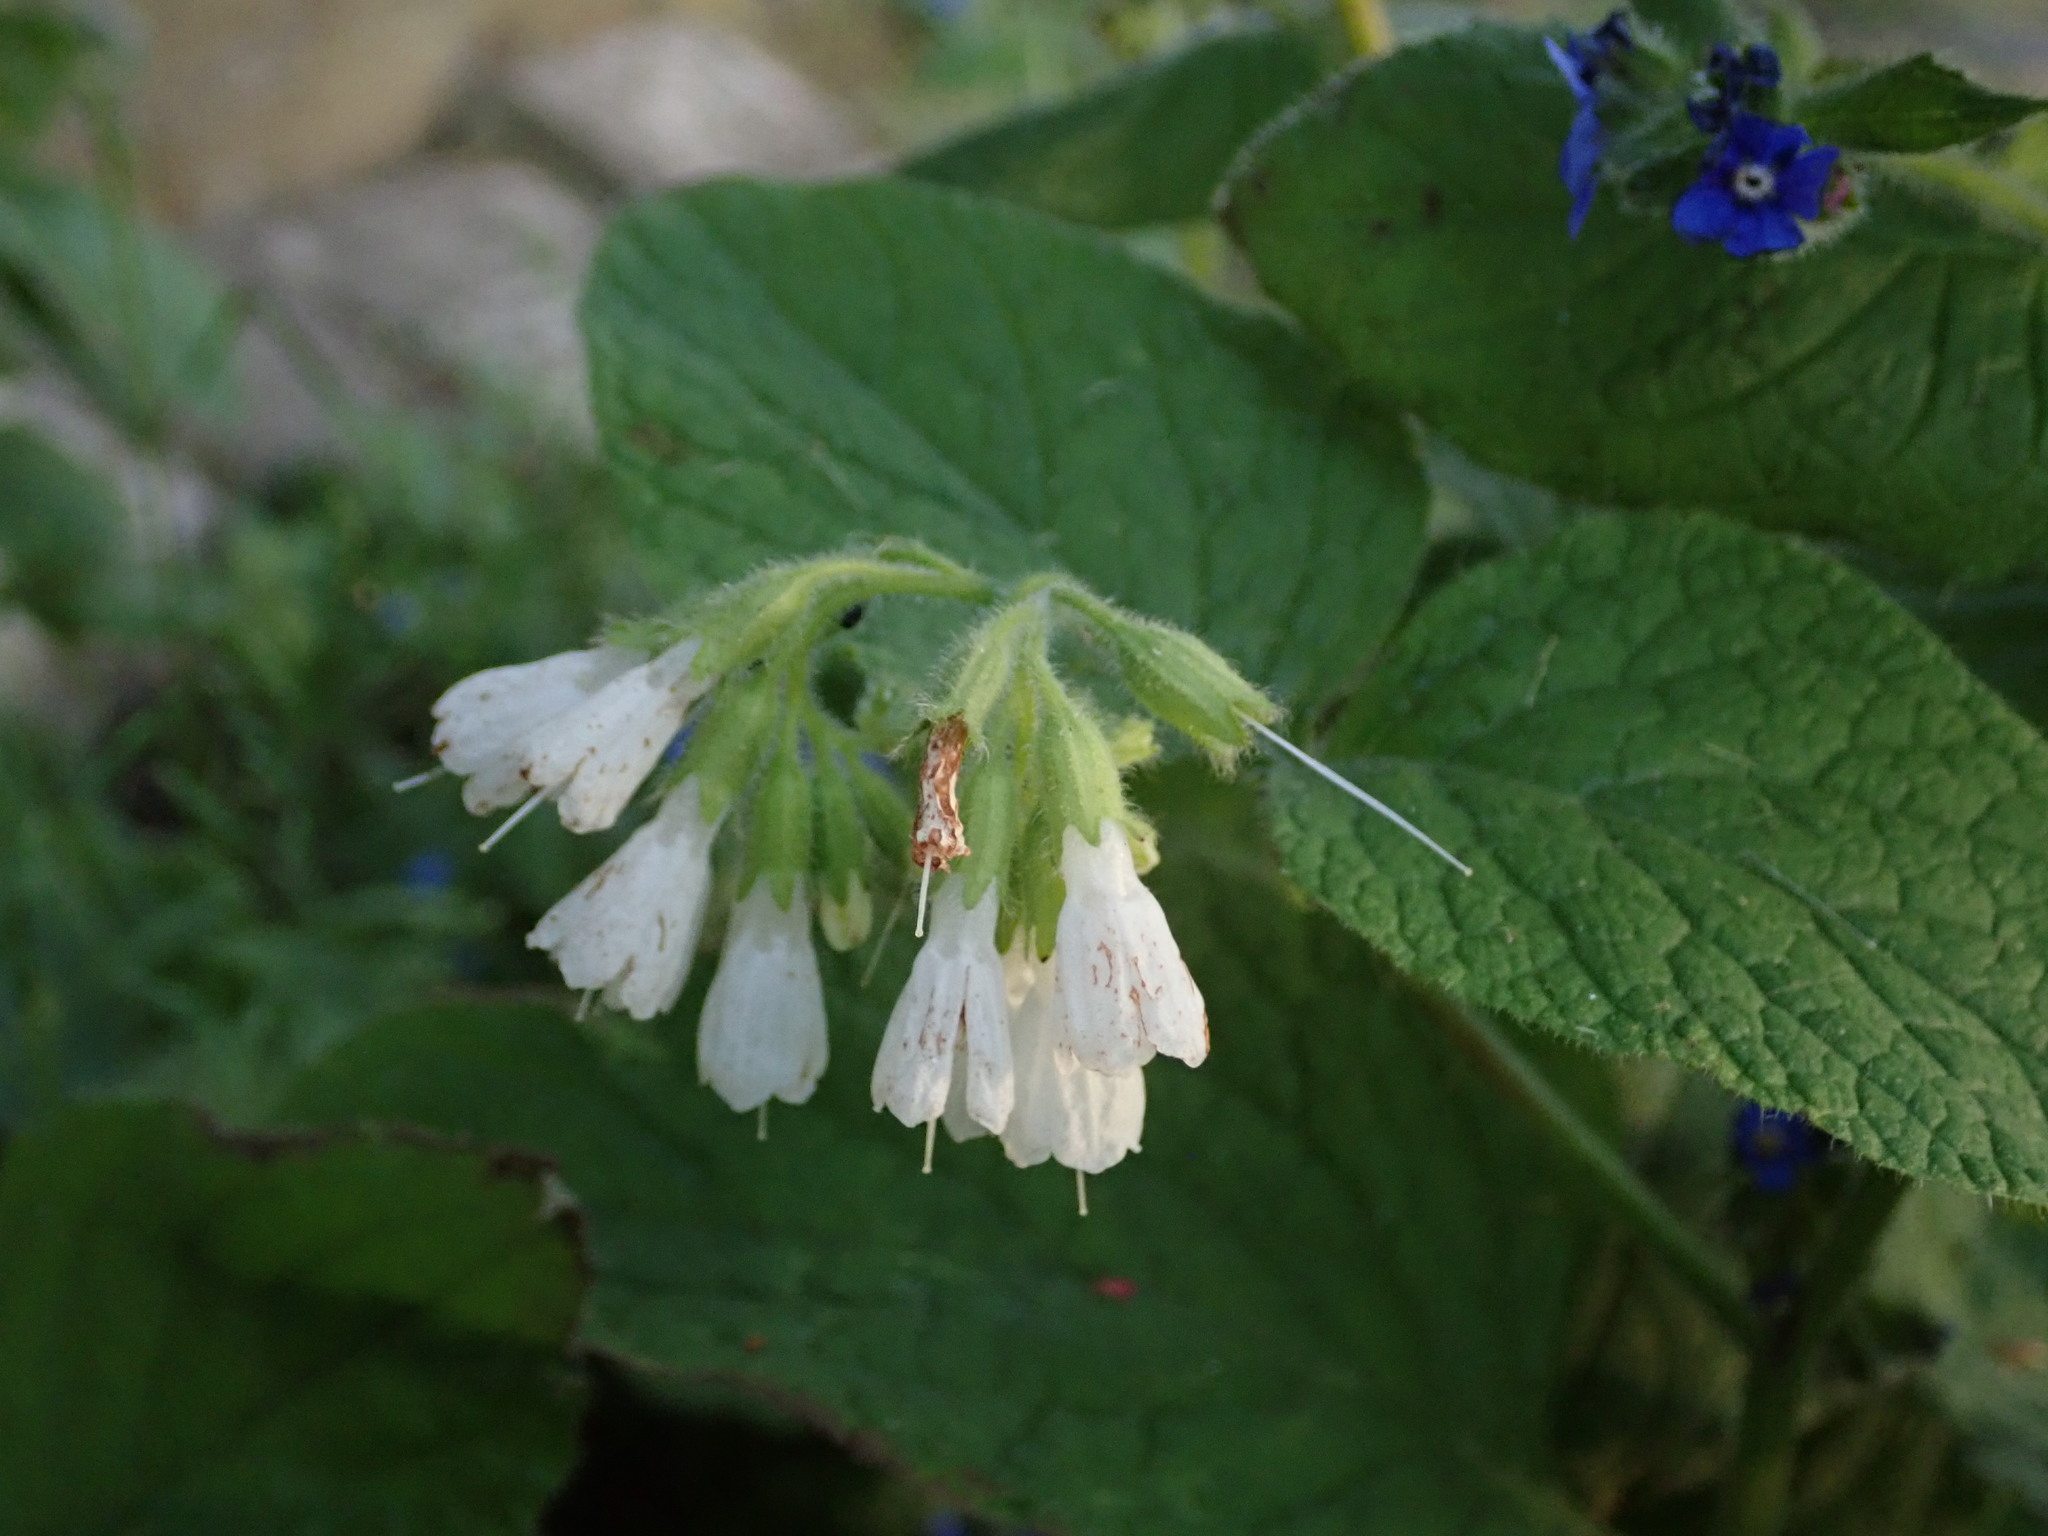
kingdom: Plantae
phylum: Tracheophyta
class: Magnoliopsida
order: Boraginales
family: Boraginaceae
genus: Symphytum
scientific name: Symphytum orientale
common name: White comfrey
